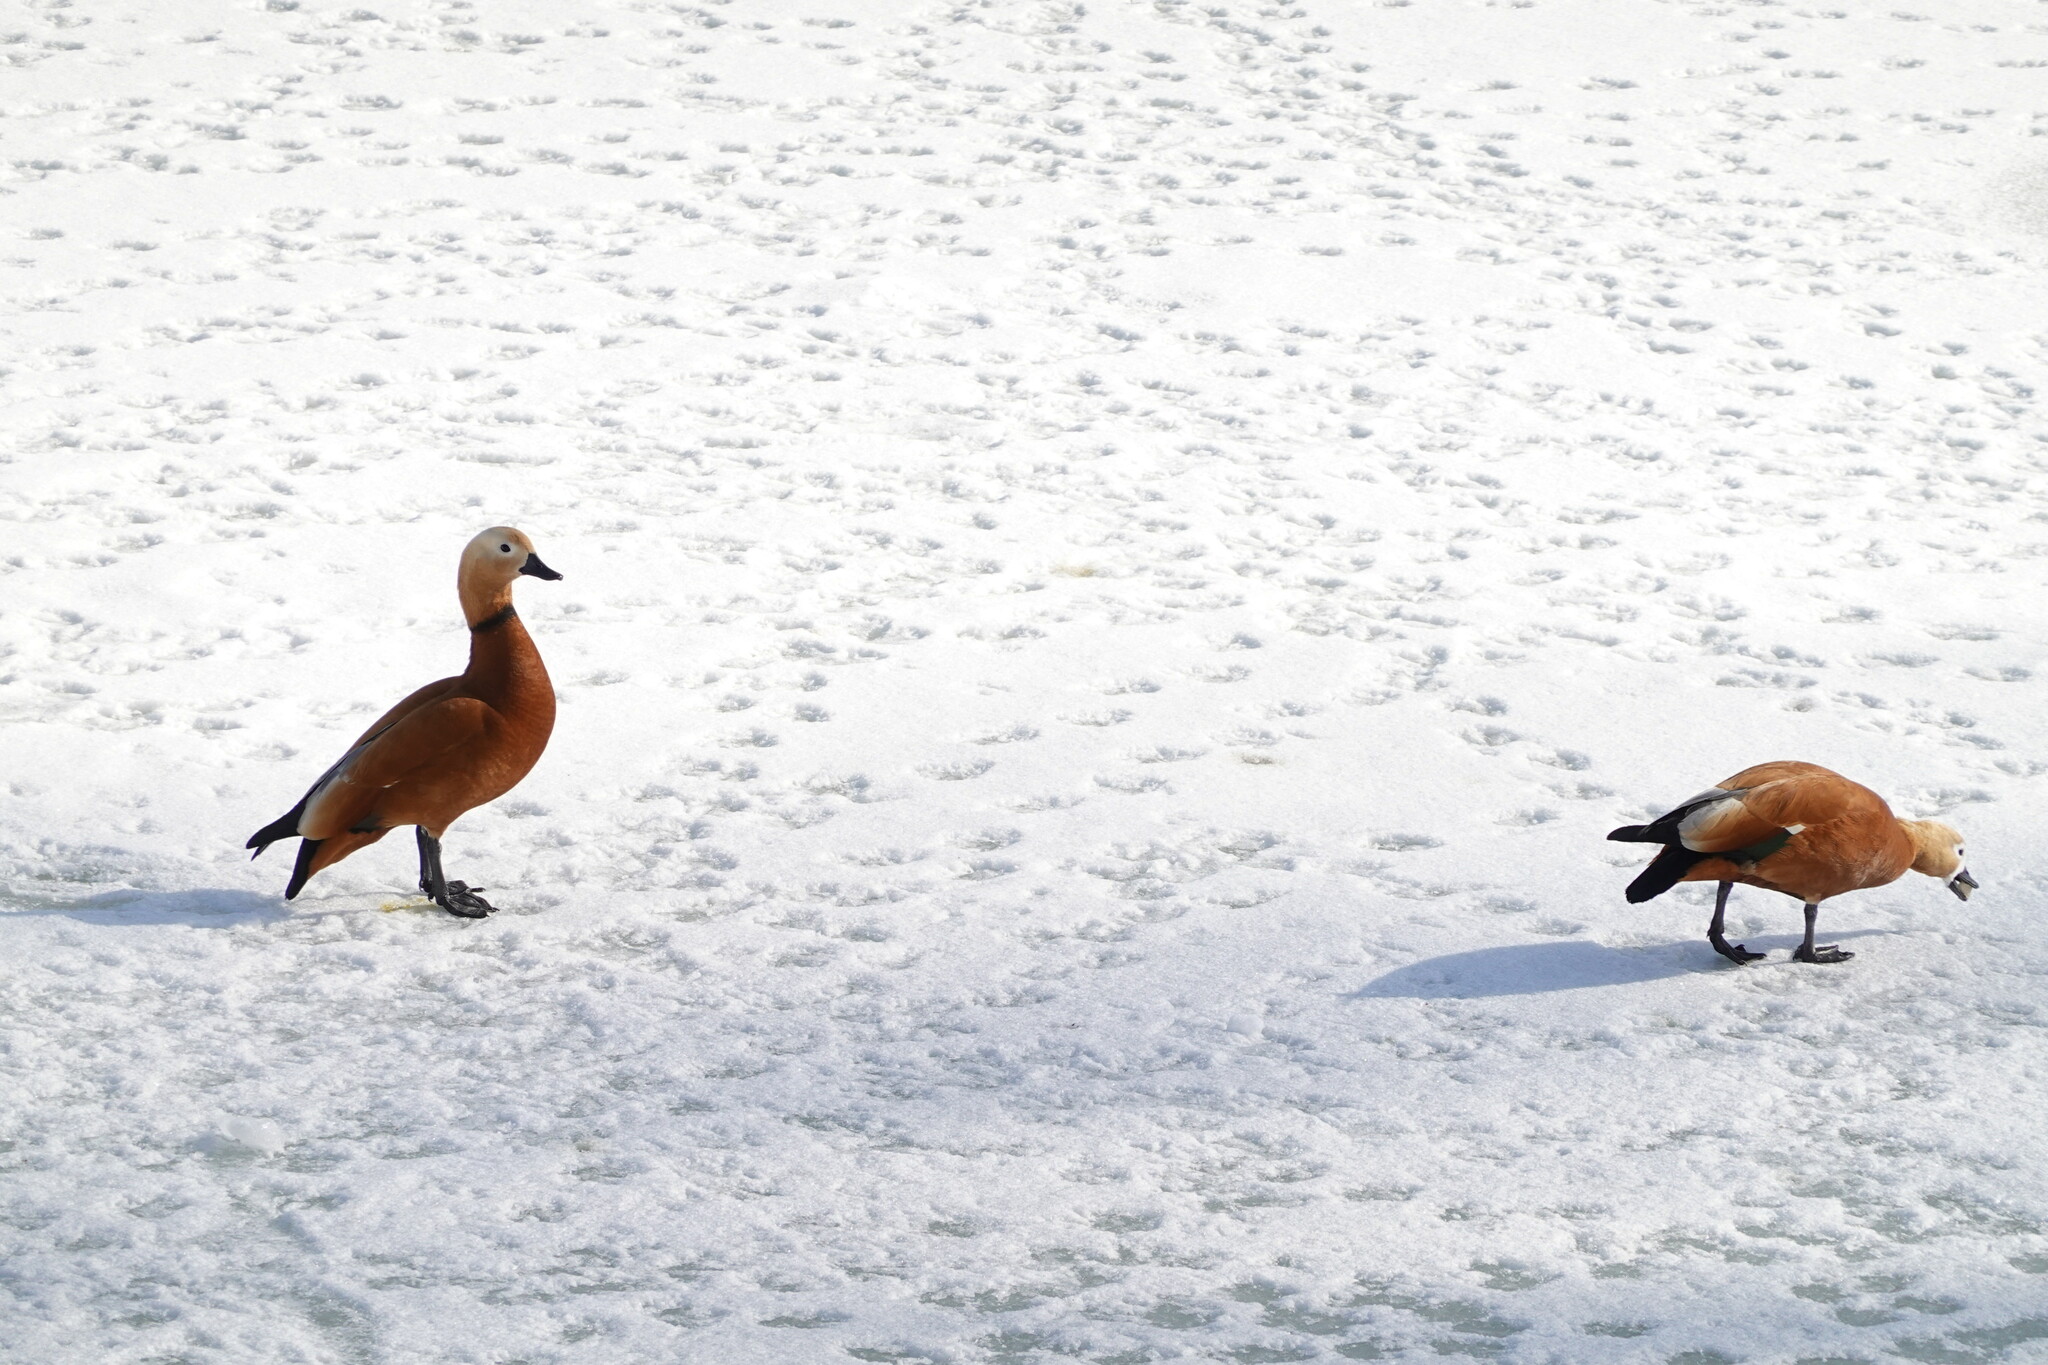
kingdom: Animalia
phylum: Chordata
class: Aves
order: Anseriformes
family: Anatidae
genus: Tadorna
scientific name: Tadorna ferruginea
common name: Ruddy shelduck
